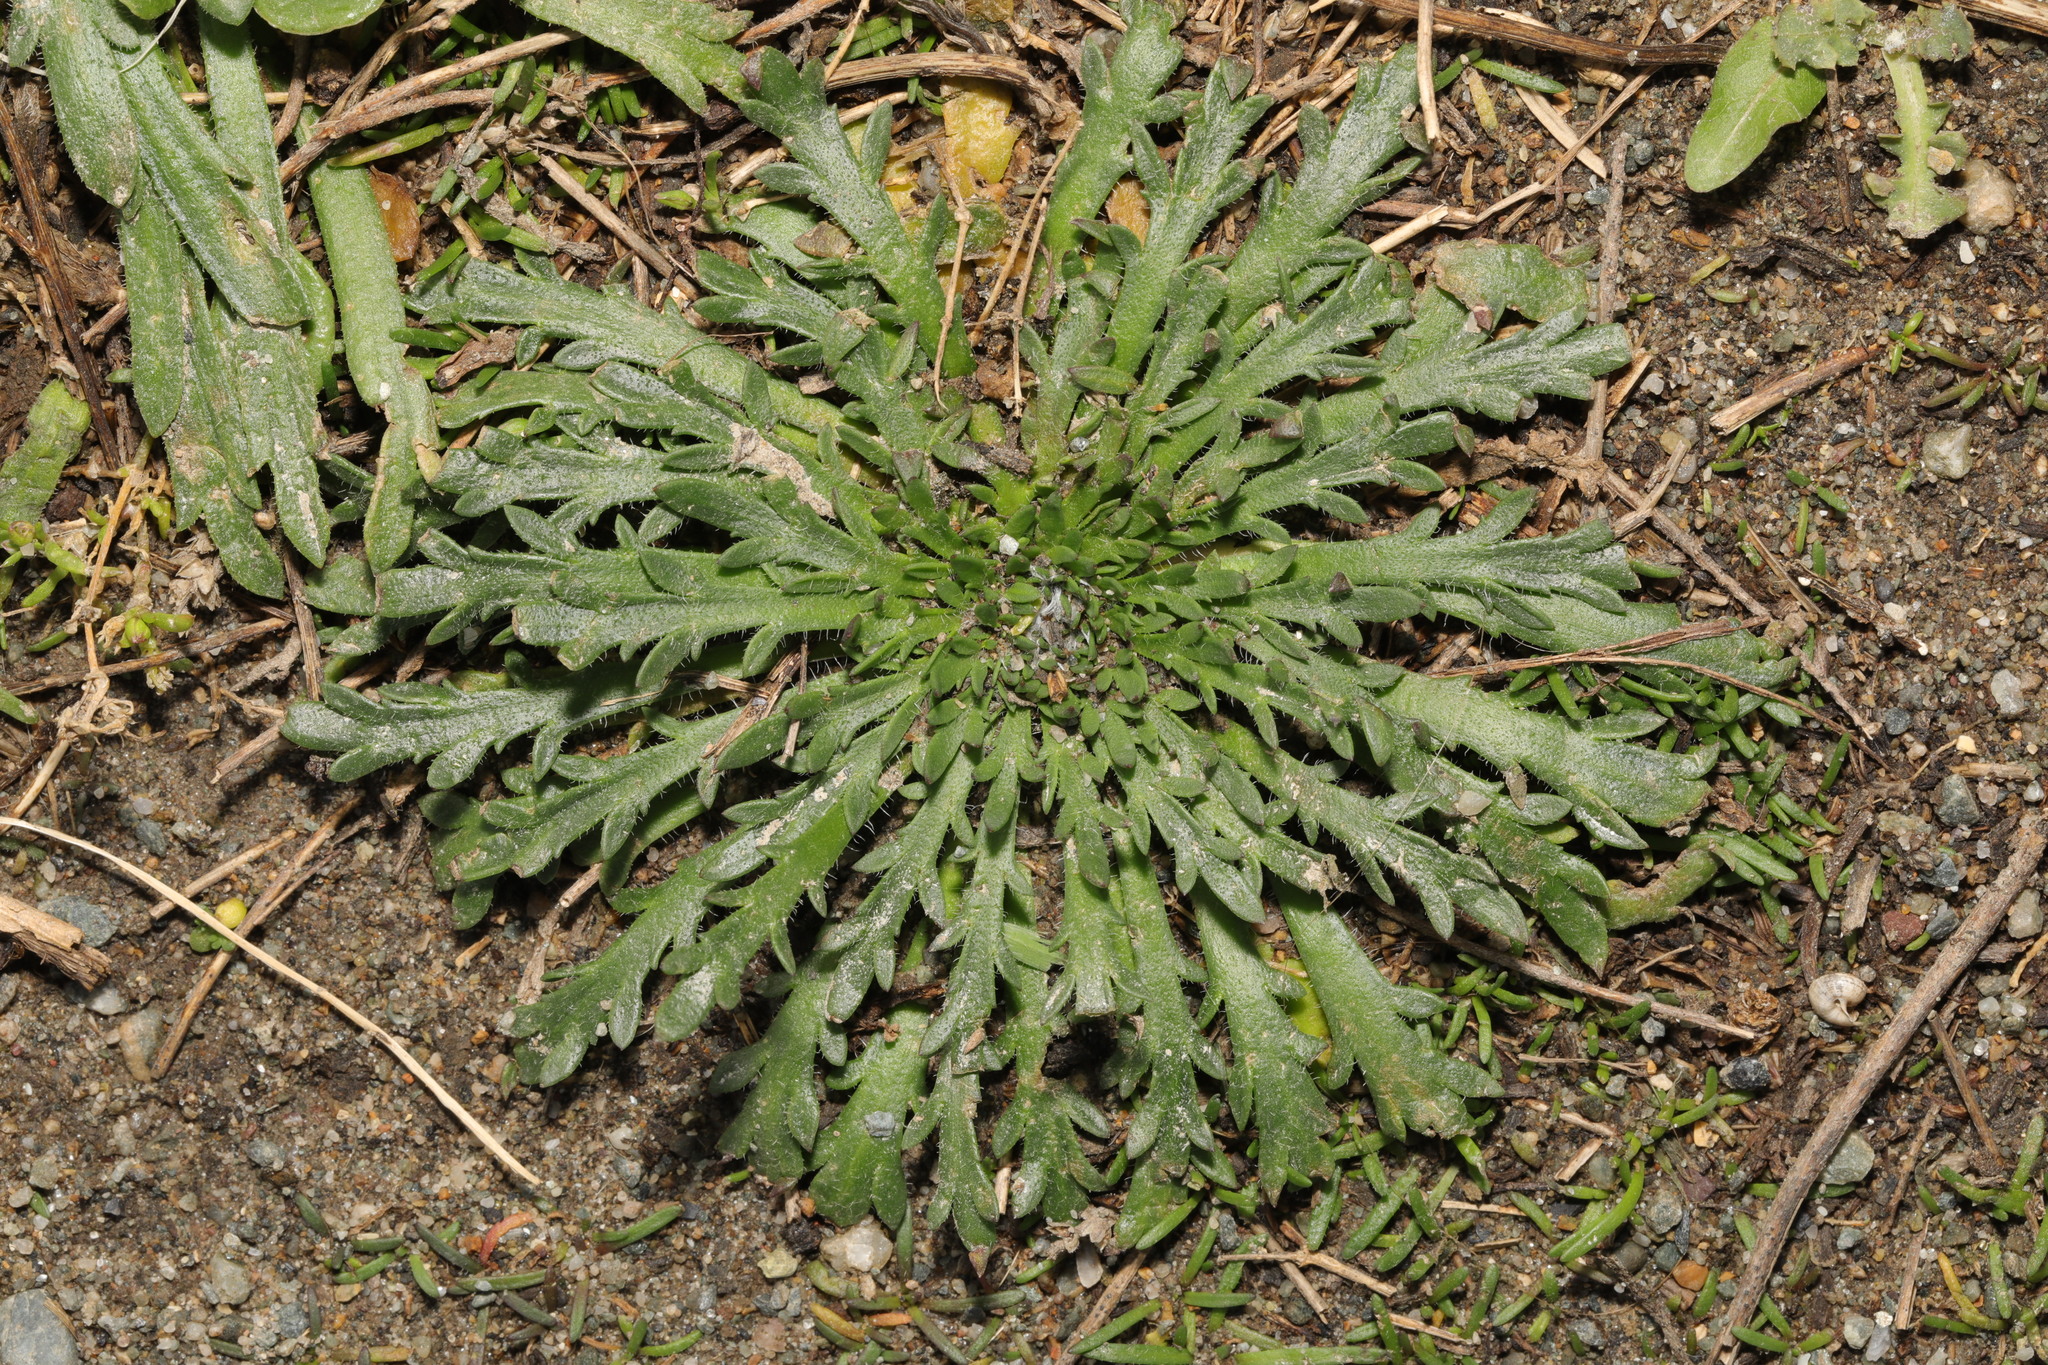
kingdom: Plantae
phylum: Tracheophyta
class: Magnoliopsida
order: Lamiales
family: Plantaginaceae
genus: Plantago
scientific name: Plantago coronopus
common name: Buck's-horn plantain
